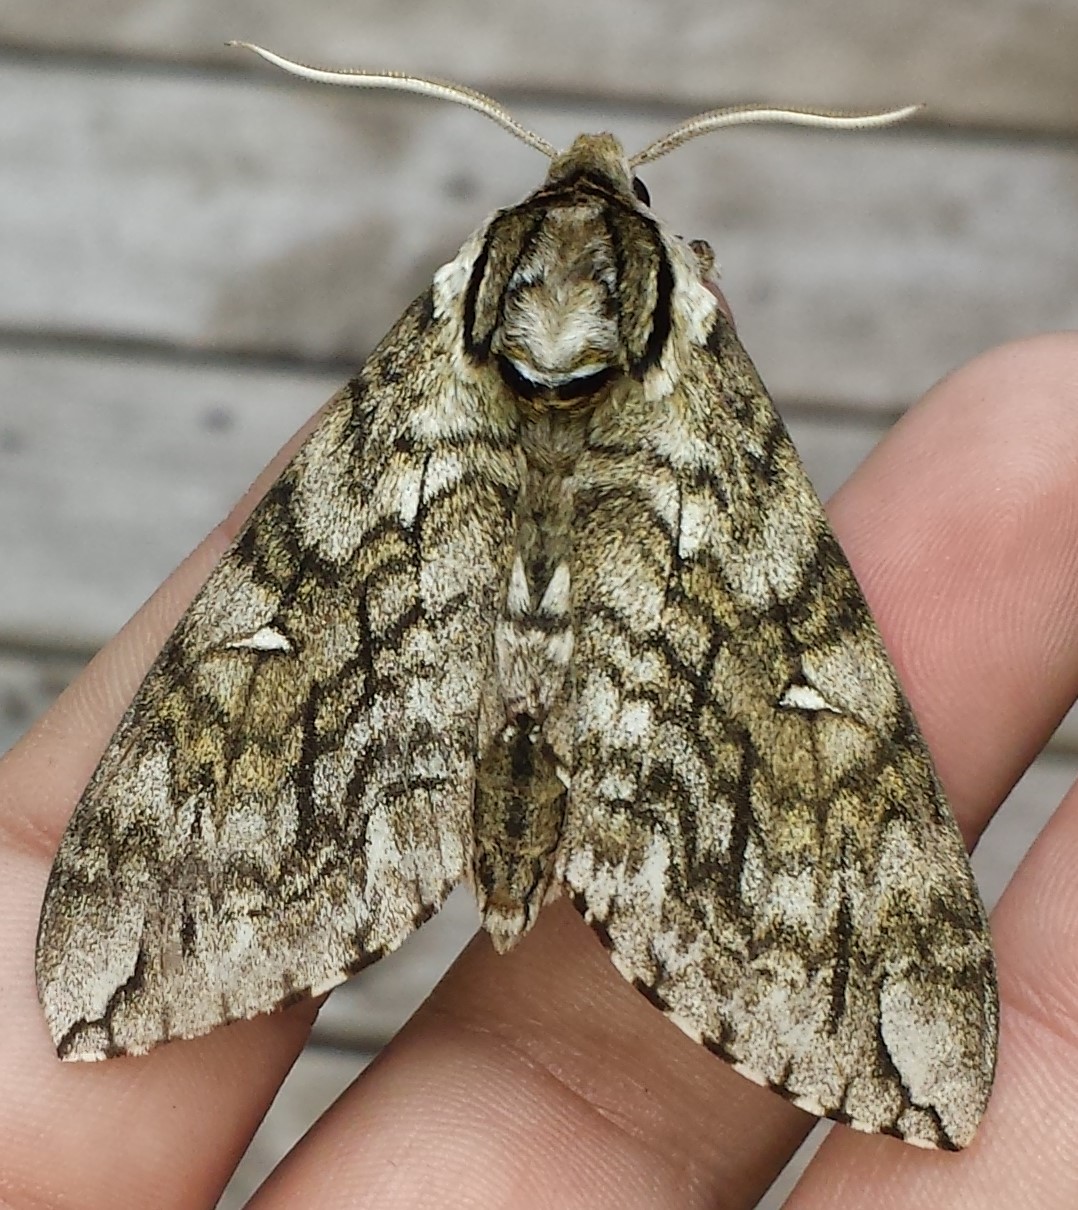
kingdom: Animalia
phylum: Arthropoda
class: Insecta
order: Lepidoptera
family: Sphingidae
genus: Ceratomia
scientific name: Ceratomia undulosa
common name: Waved sphinx
